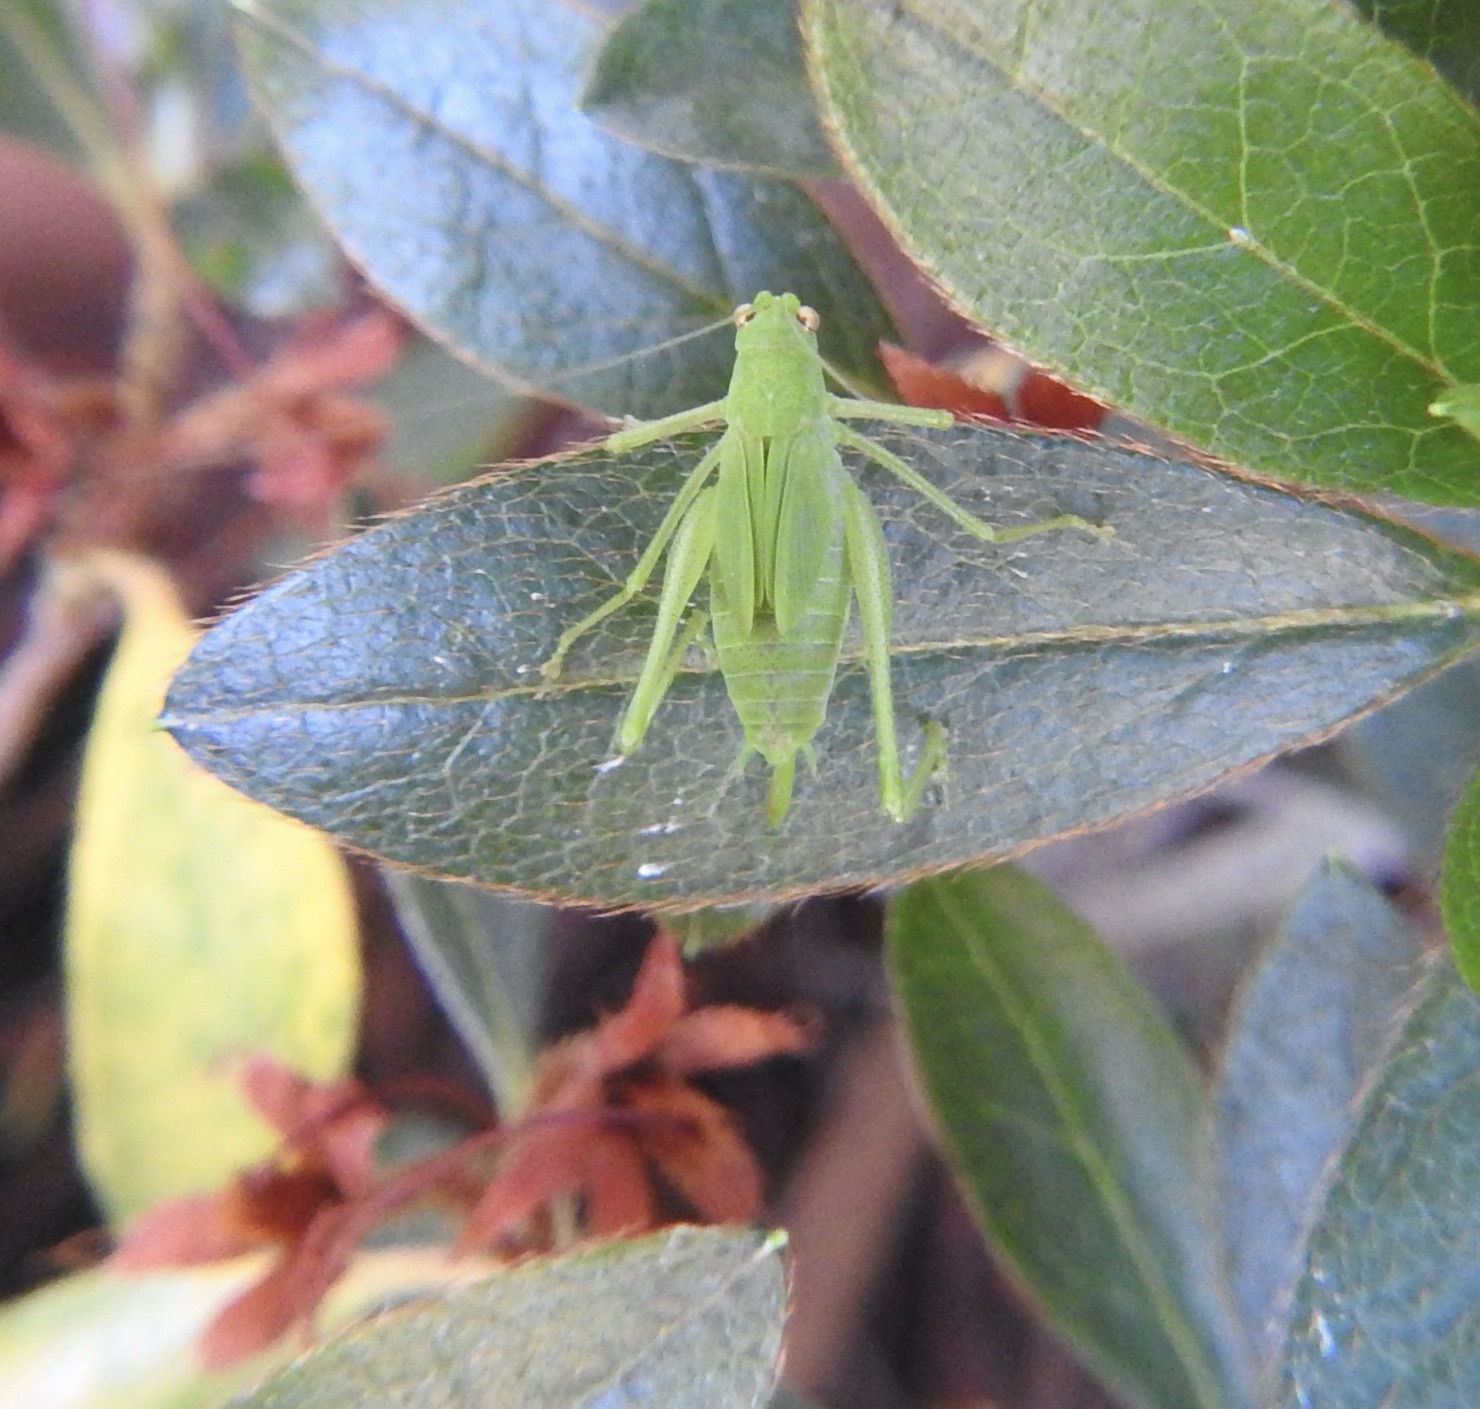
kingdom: Animalia
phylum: Arthropoda
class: Insecta
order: Orthoptera
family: Tettigoniidae
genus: Phaneroptera
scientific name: Phaneroptera nana
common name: Southern sickle bush-cricket
